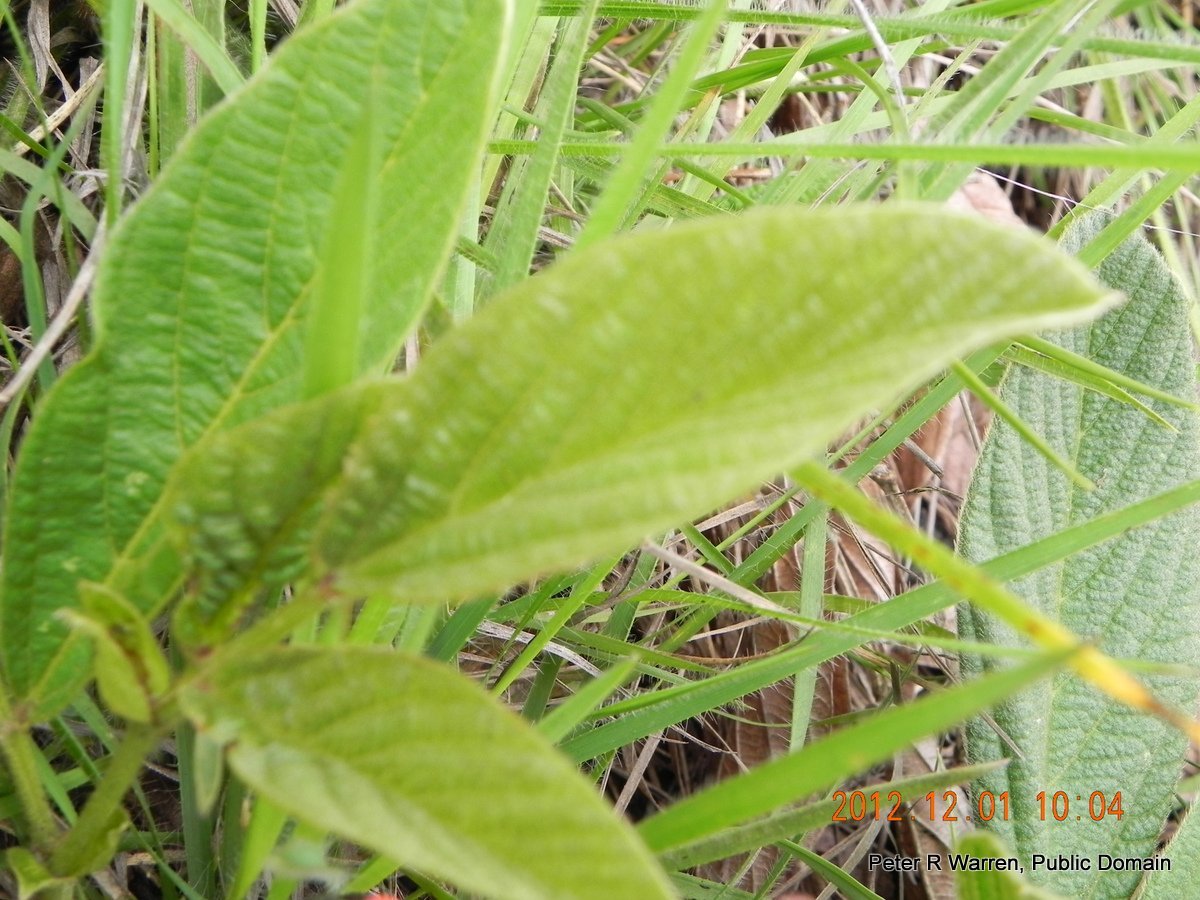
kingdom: Plantae
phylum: Tracheophyta
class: Magnoliopsida
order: Fabales
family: Fabaceae
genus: Eriosema
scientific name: Eriosema distinctum
